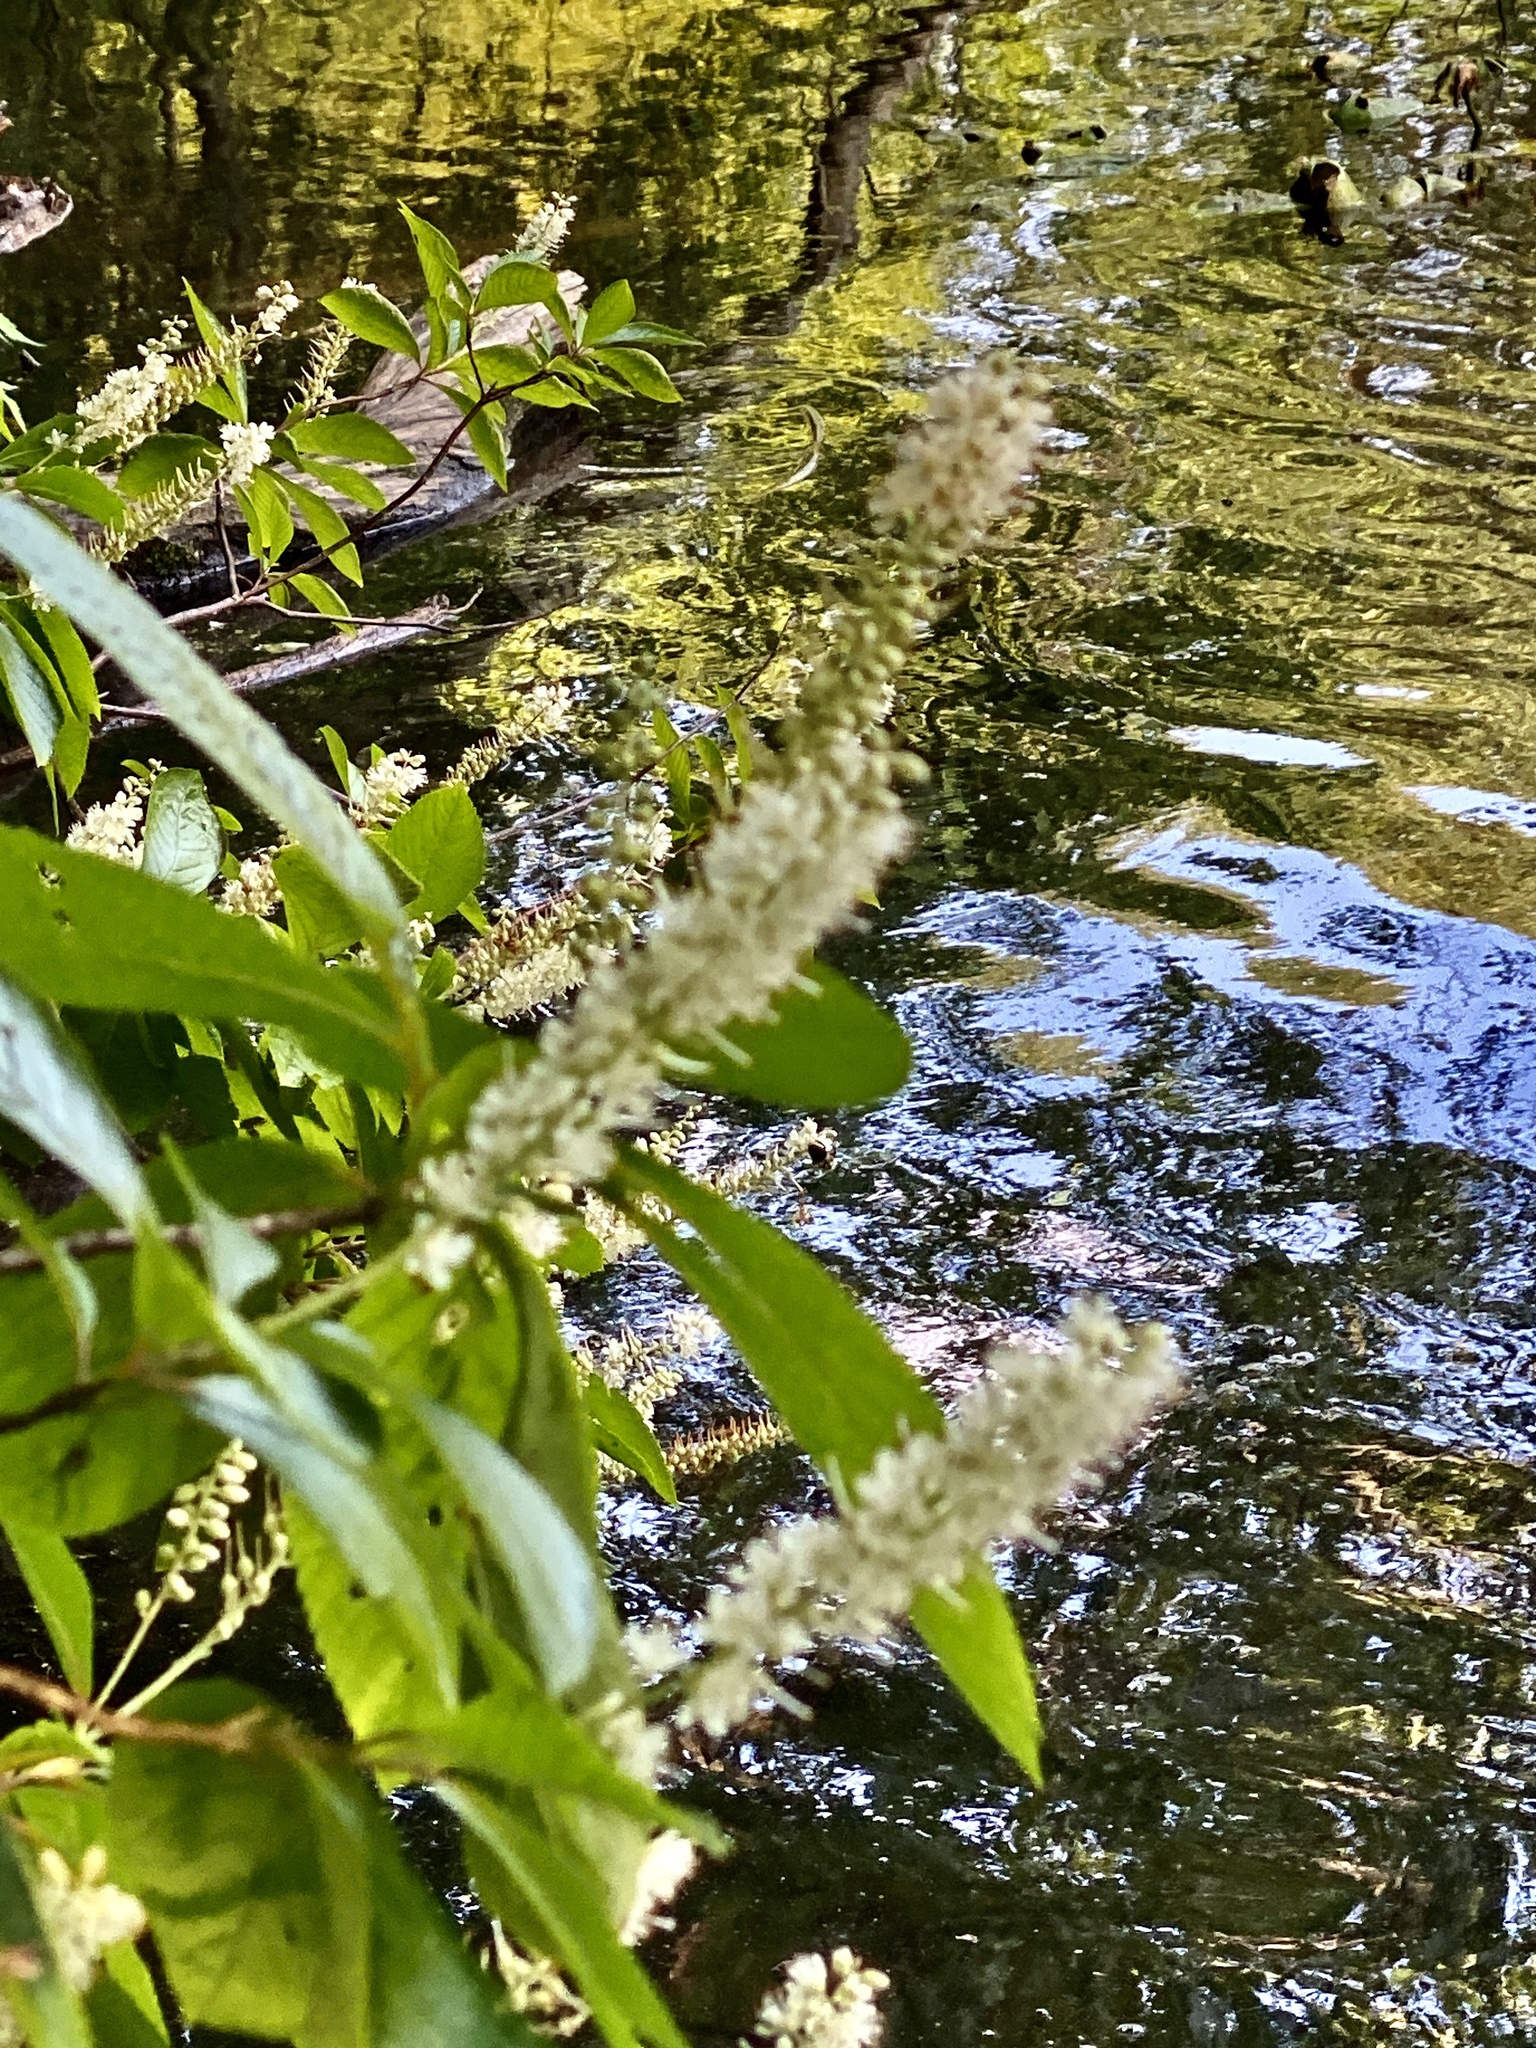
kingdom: Plantae
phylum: Tracheophyta
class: Magnoliopsida
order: Ericales
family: Clethraceae
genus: Clethra
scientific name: Clethra alnifolia
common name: Sweet pepperbush
